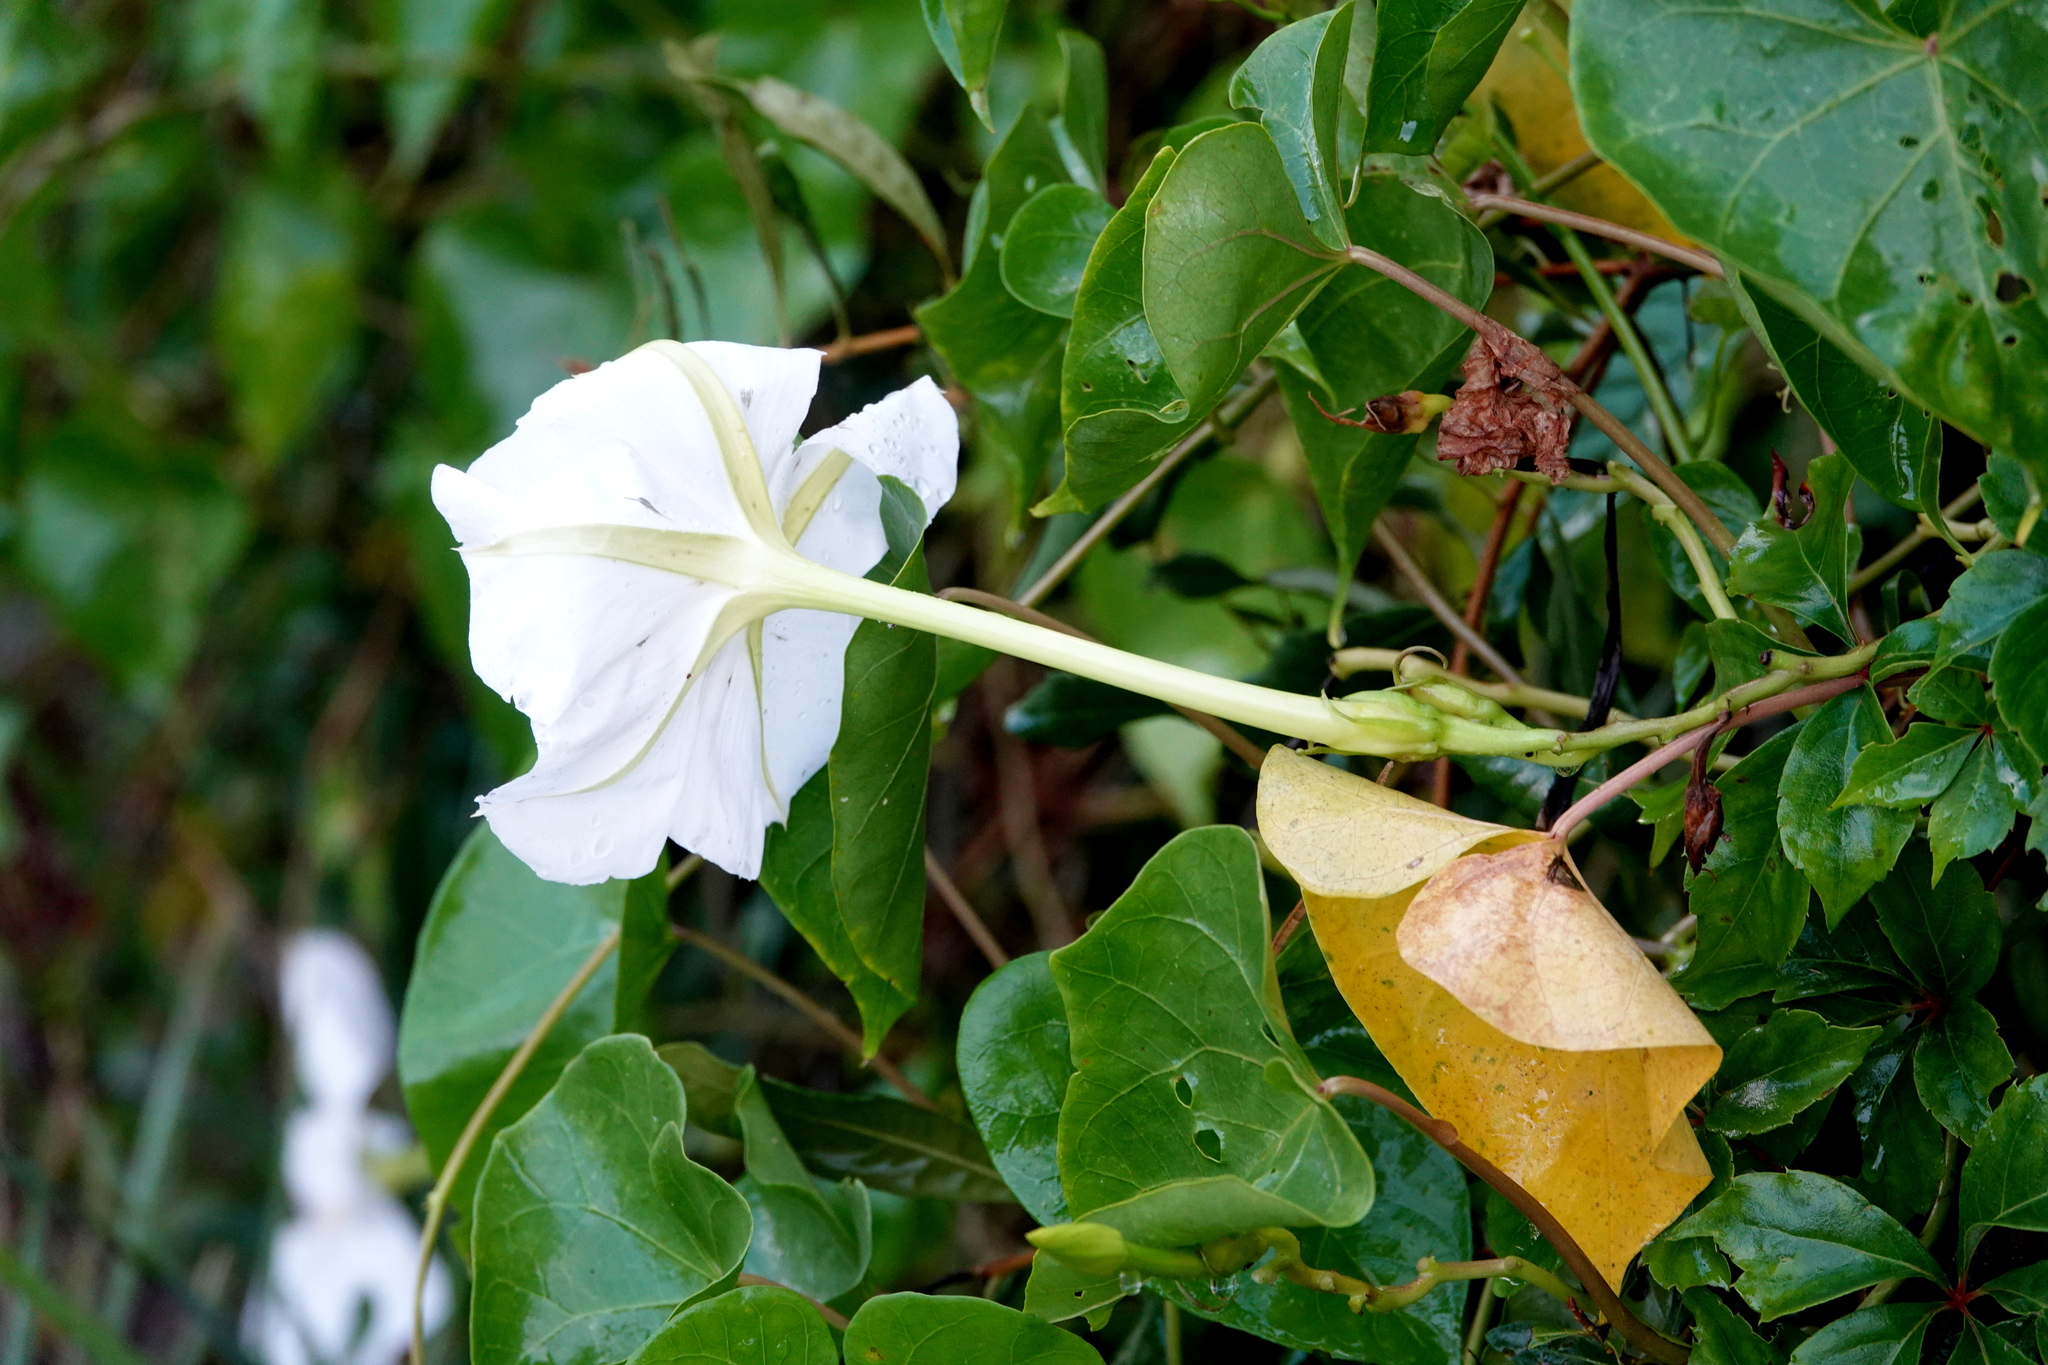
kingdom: Plantae
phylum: Tracheophyta
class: Magnoliopsida
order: Solanales
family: Convolvulaceae
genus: Ipomoea
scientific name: Ipomoea alba
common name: Moonflower
